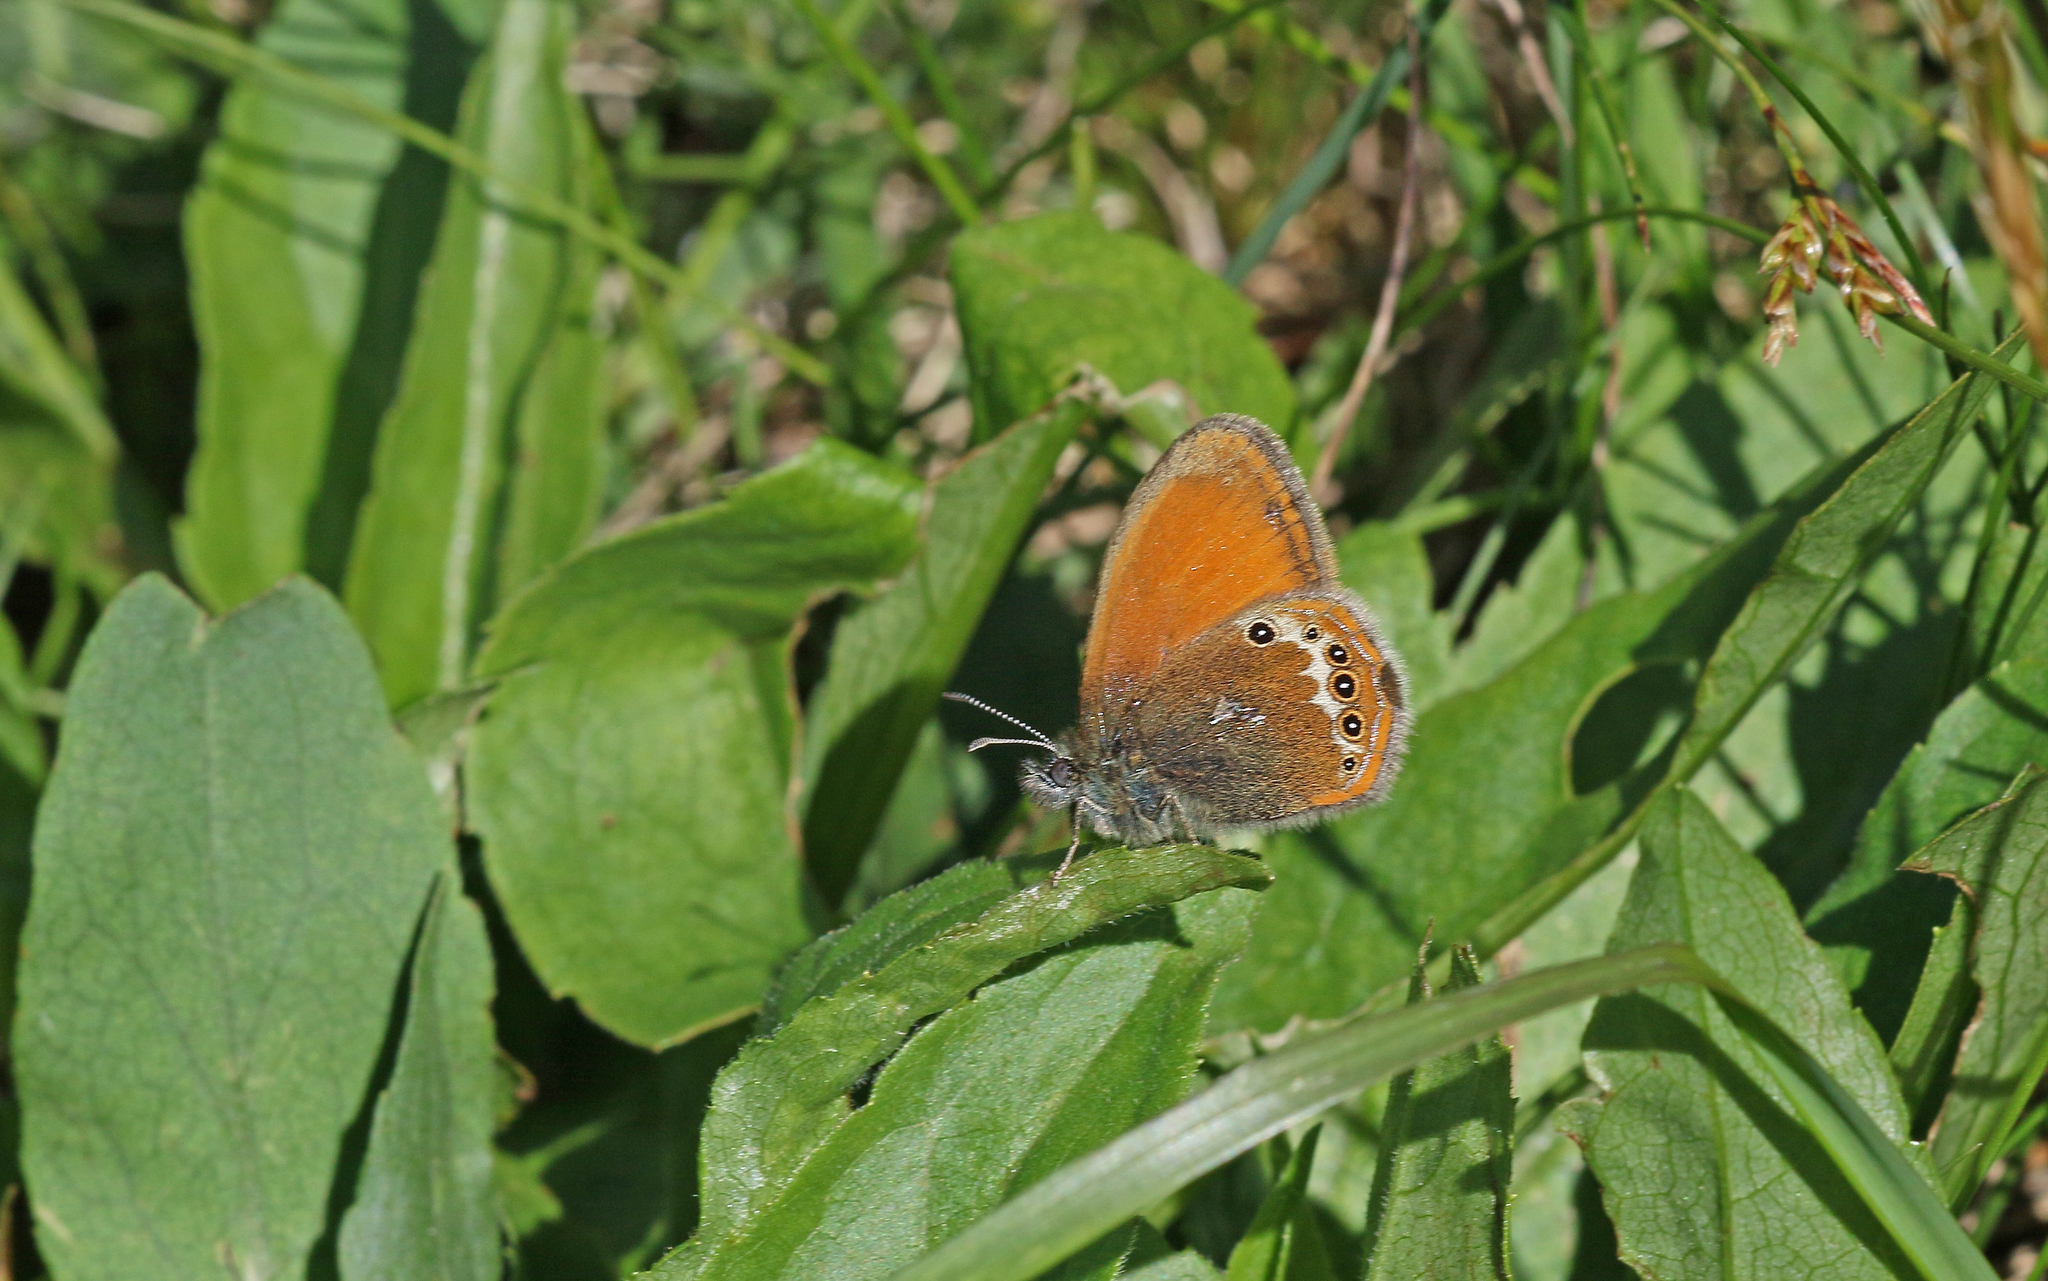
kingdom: Animalia
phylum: Arthropoda
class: Insecta
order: Lepidoptera
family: Nymphalidae
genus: Coenonympha
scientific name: Coenonympha arcania
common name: Pearly heath
